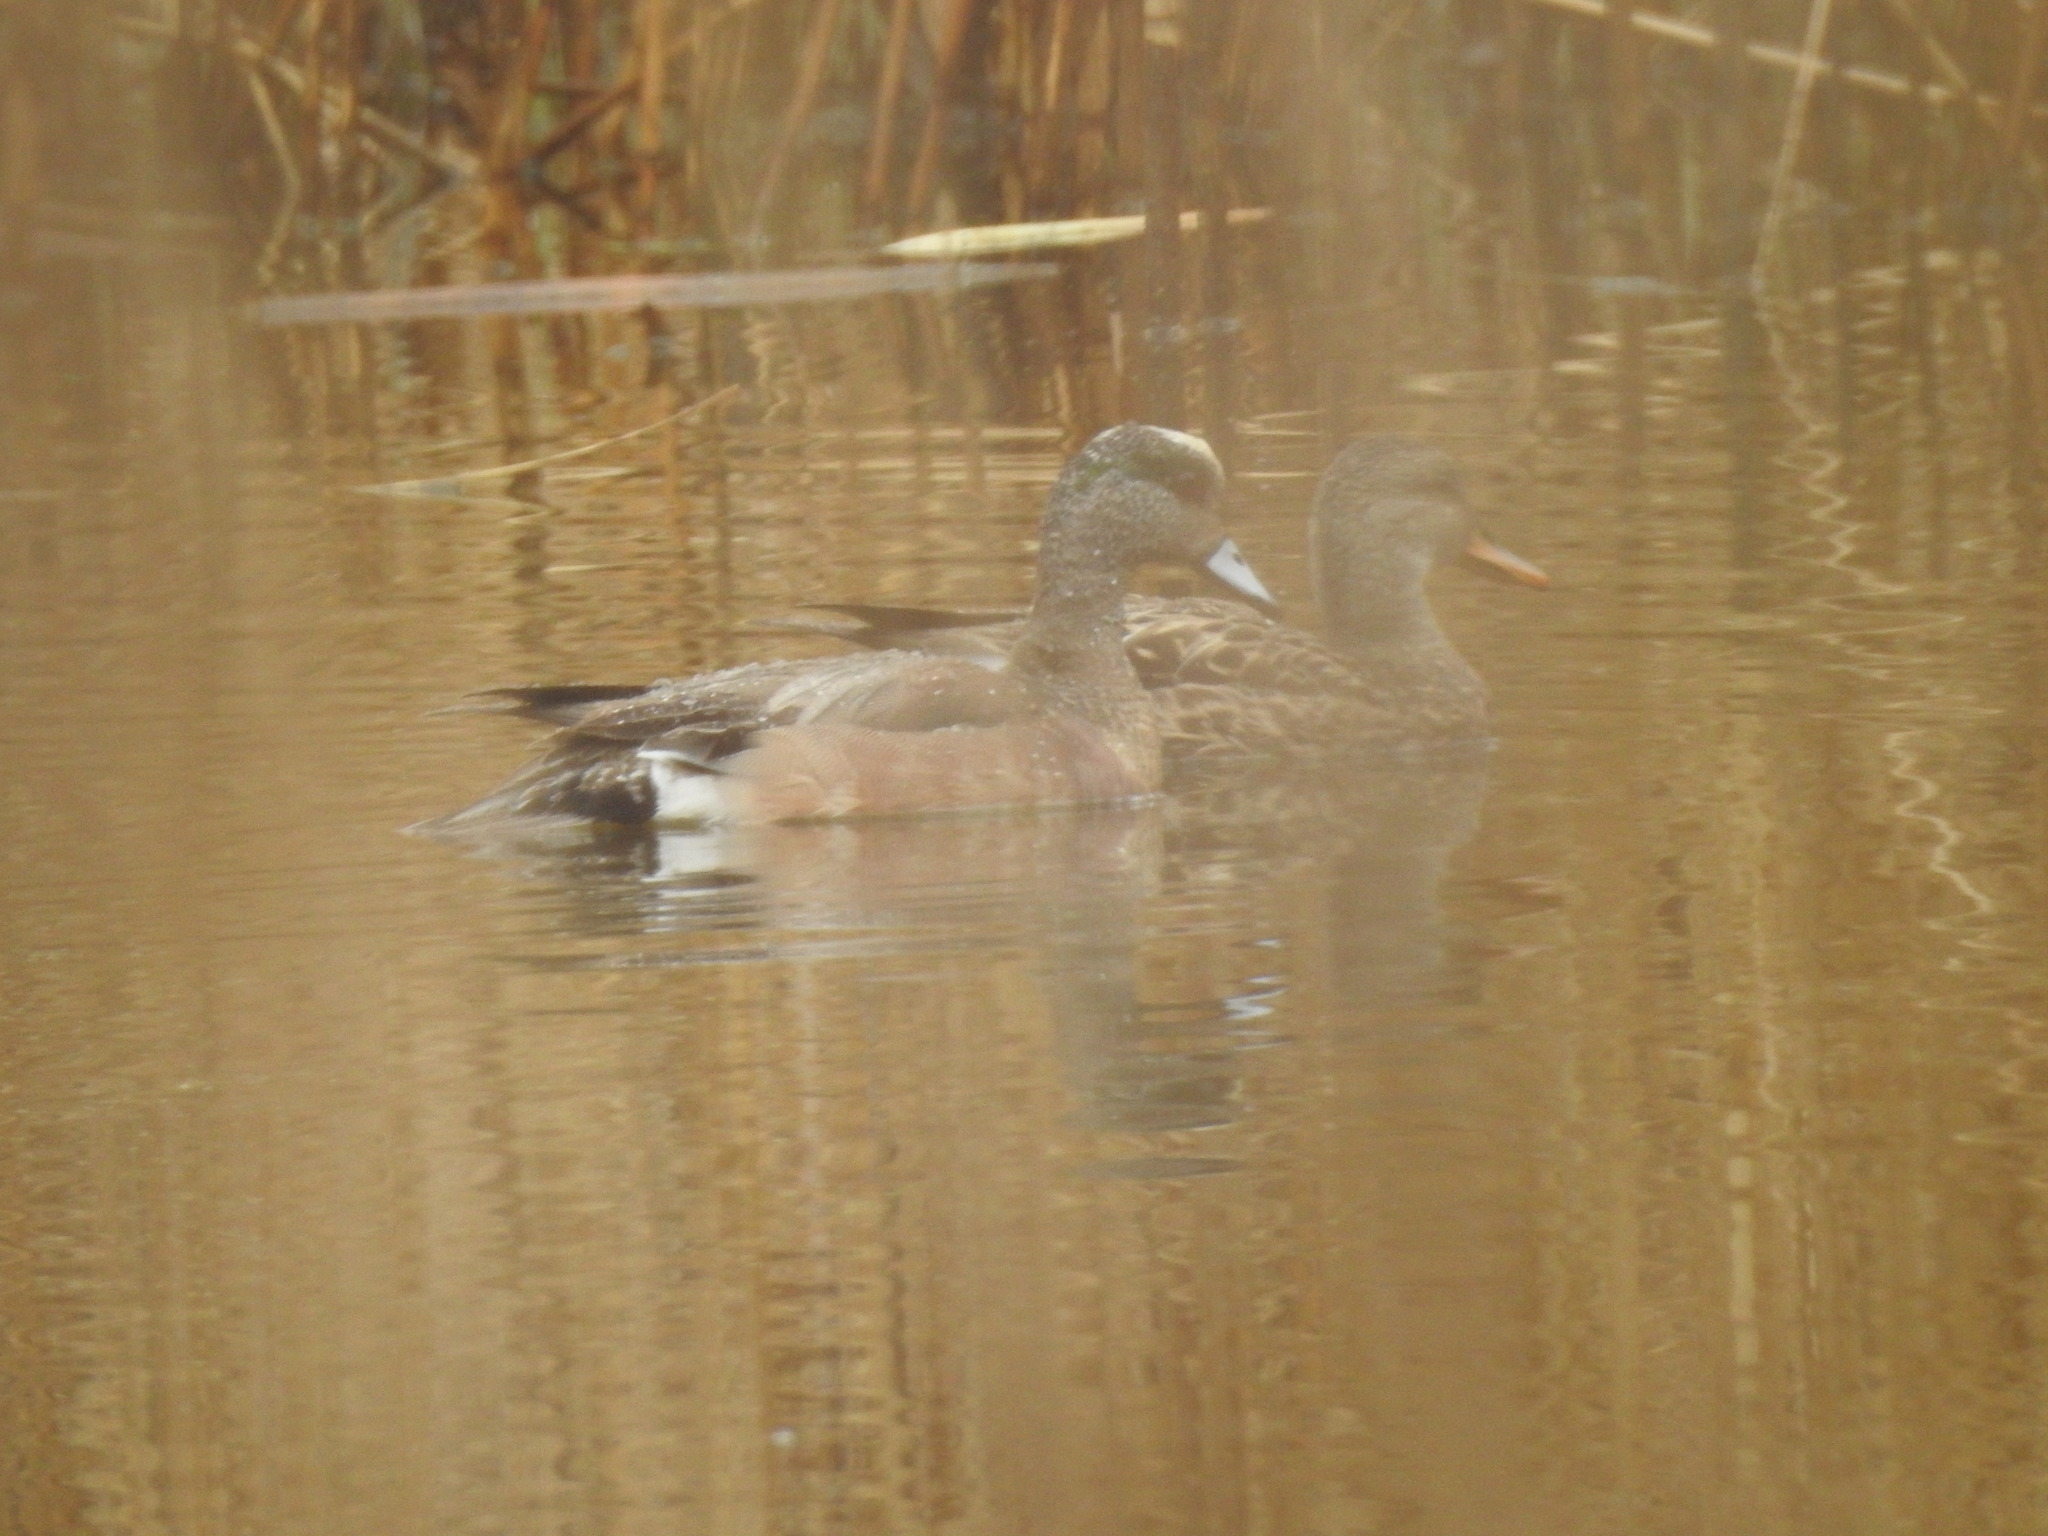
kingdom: Animalia
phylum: Chordata
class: Aves
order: Anseriformes
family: Anatidae
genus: Mareca
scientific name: Mareca americana
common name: American wigeon
